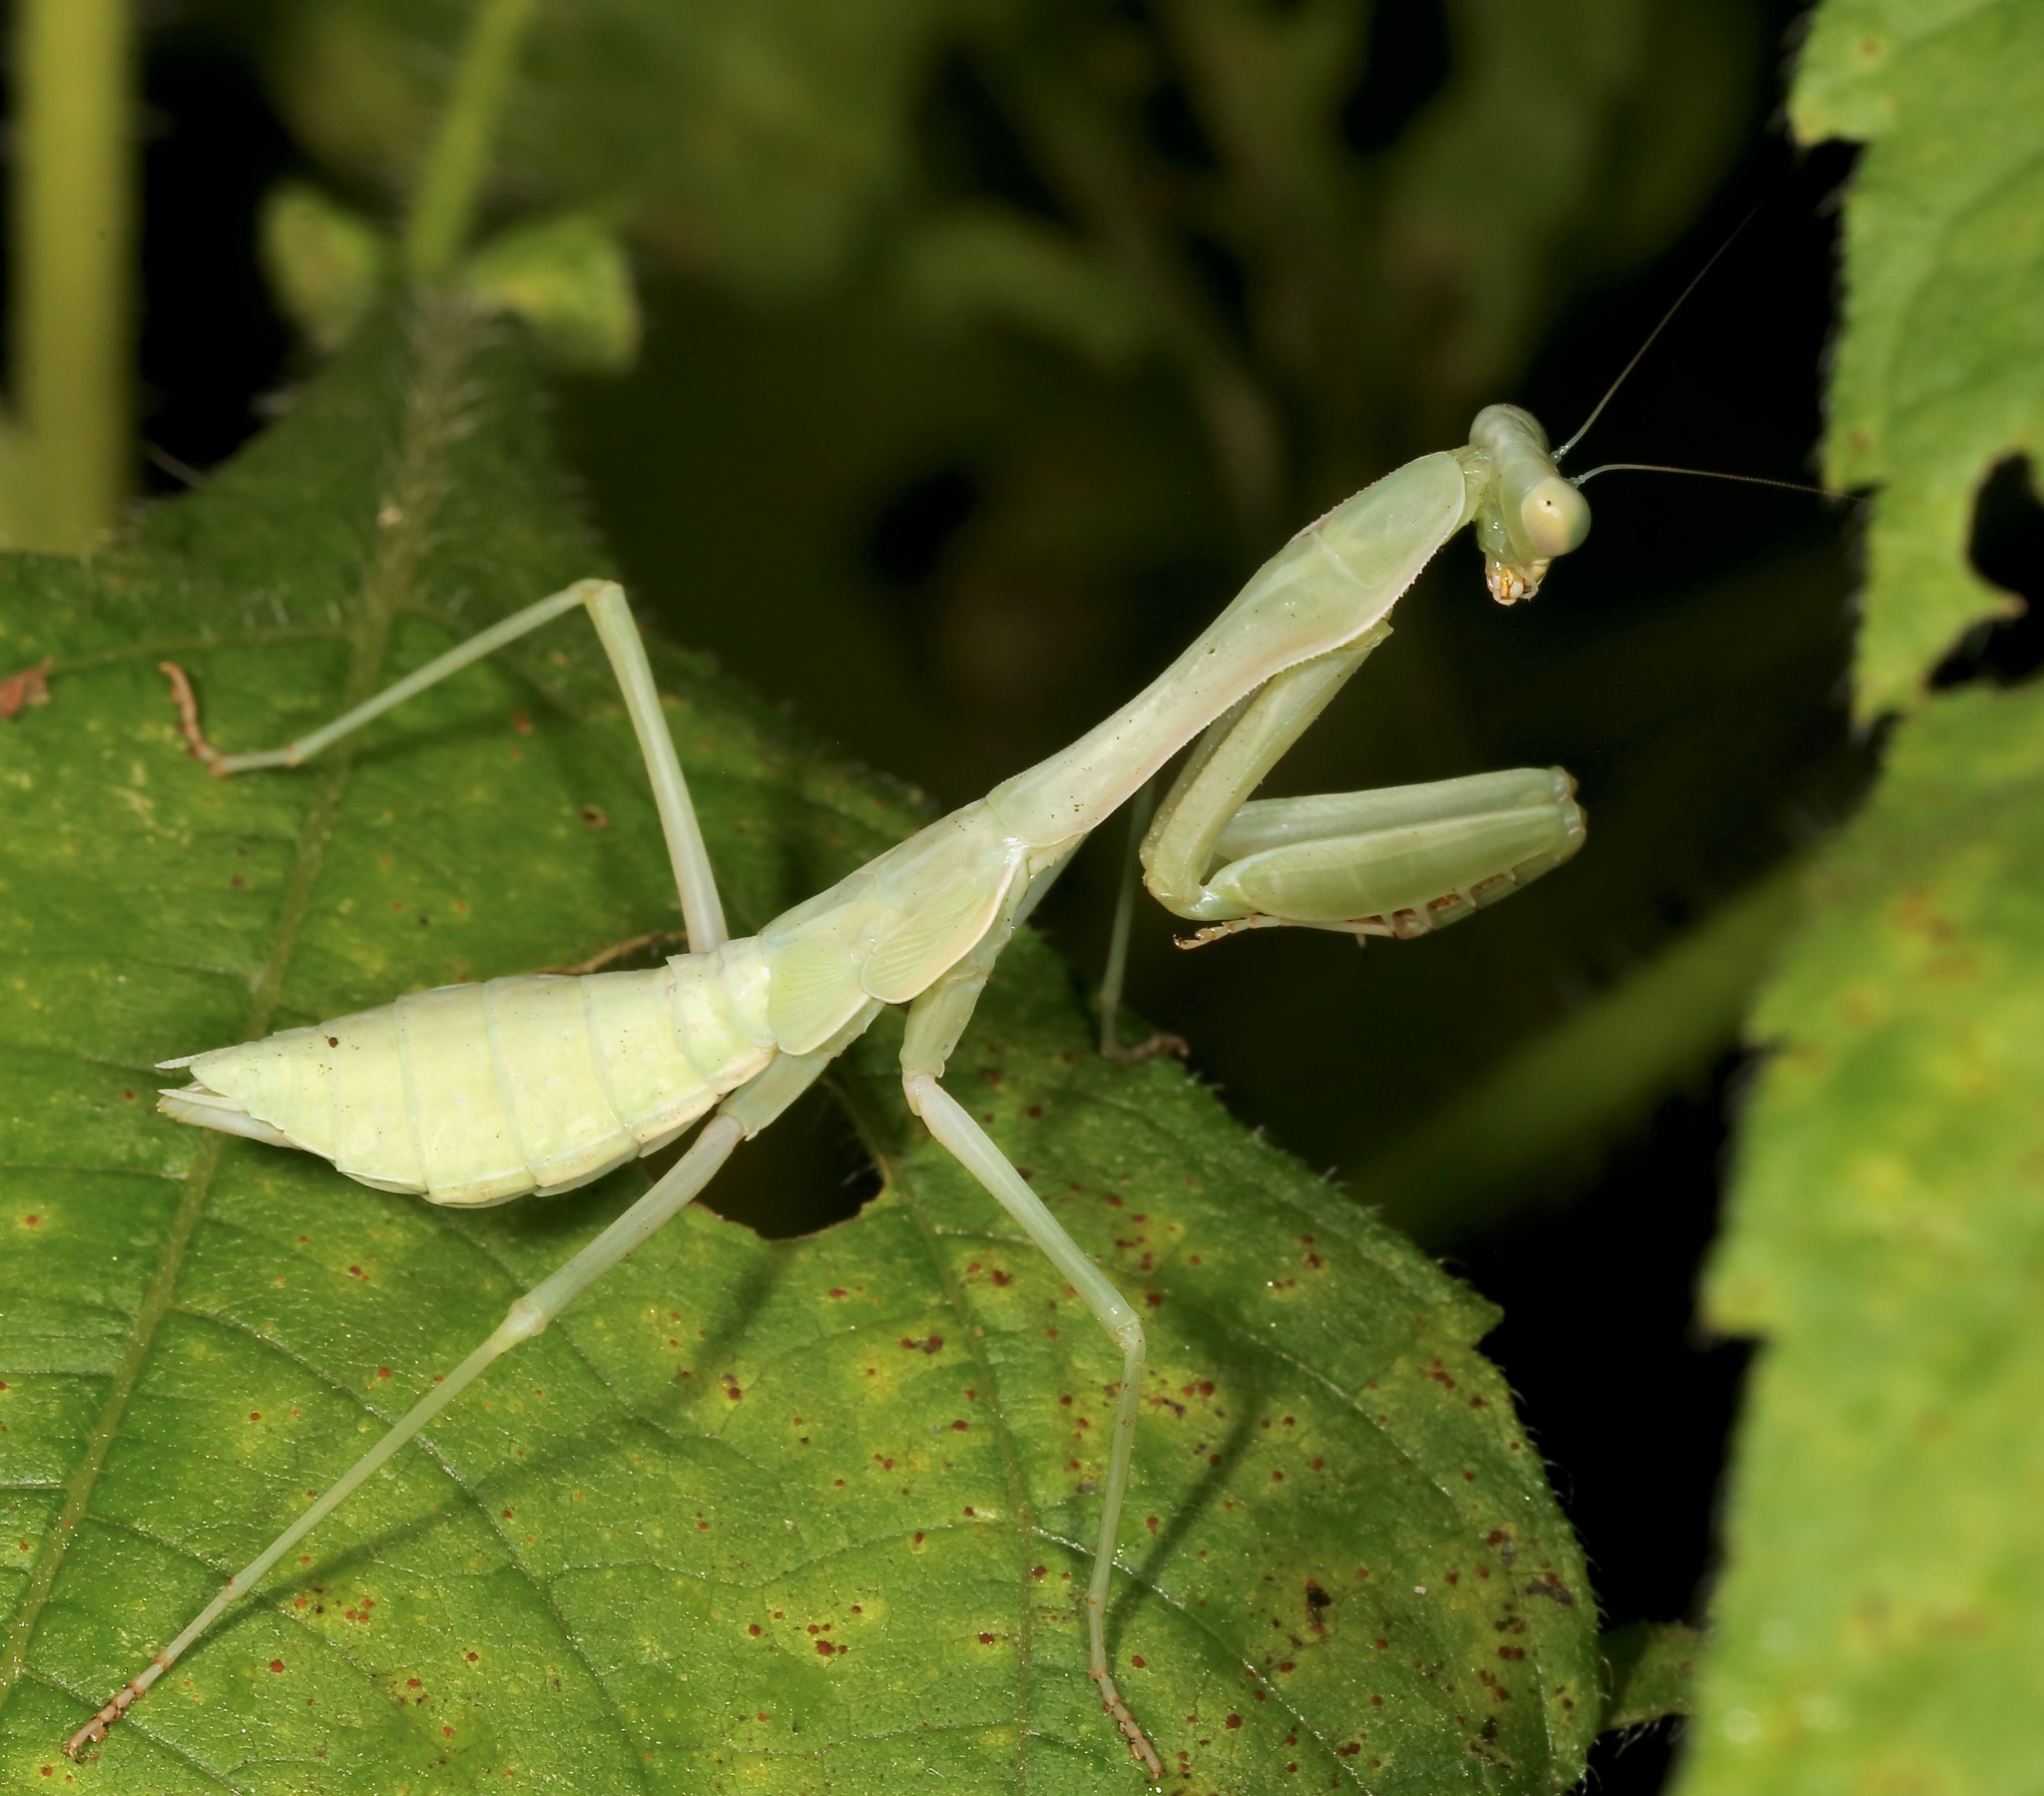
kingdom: Animalia
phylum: Arthropoda
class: Insecta
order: Mantodea
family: Mantidae
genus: Stagmomantis
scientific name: Stagmomantis limbata
